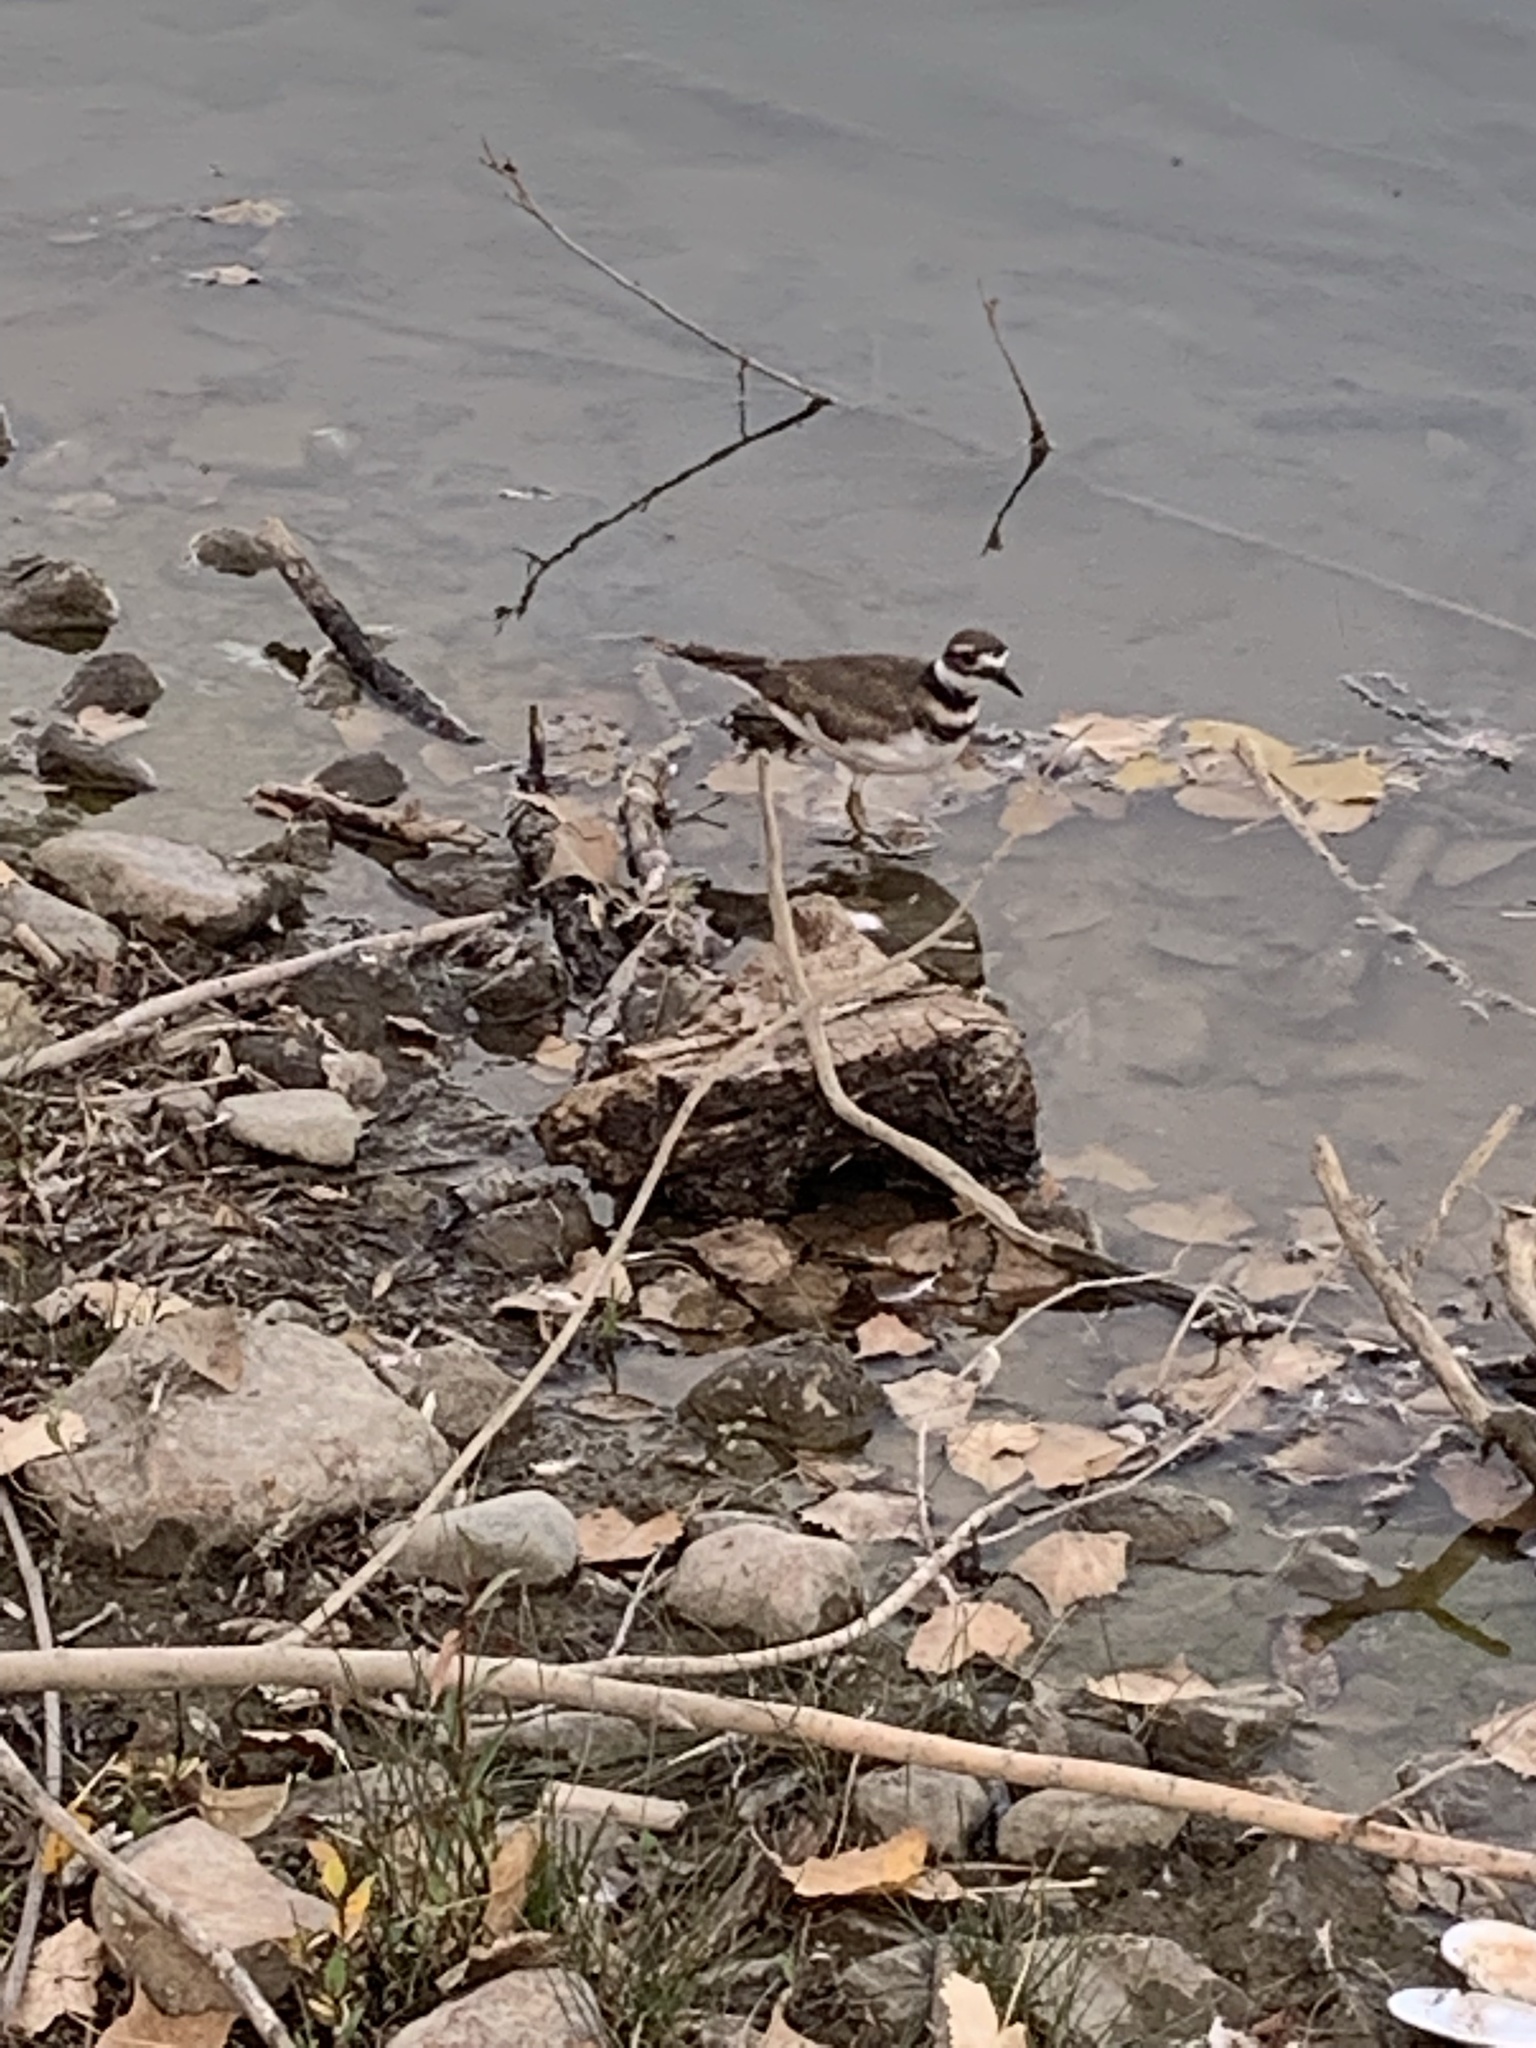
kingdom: Animalia
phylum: Chordata
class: Aves
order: Charadriiformes
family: Charadriidae
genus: Charadrius
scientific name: Charadrius vociferus
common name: Killdeer
